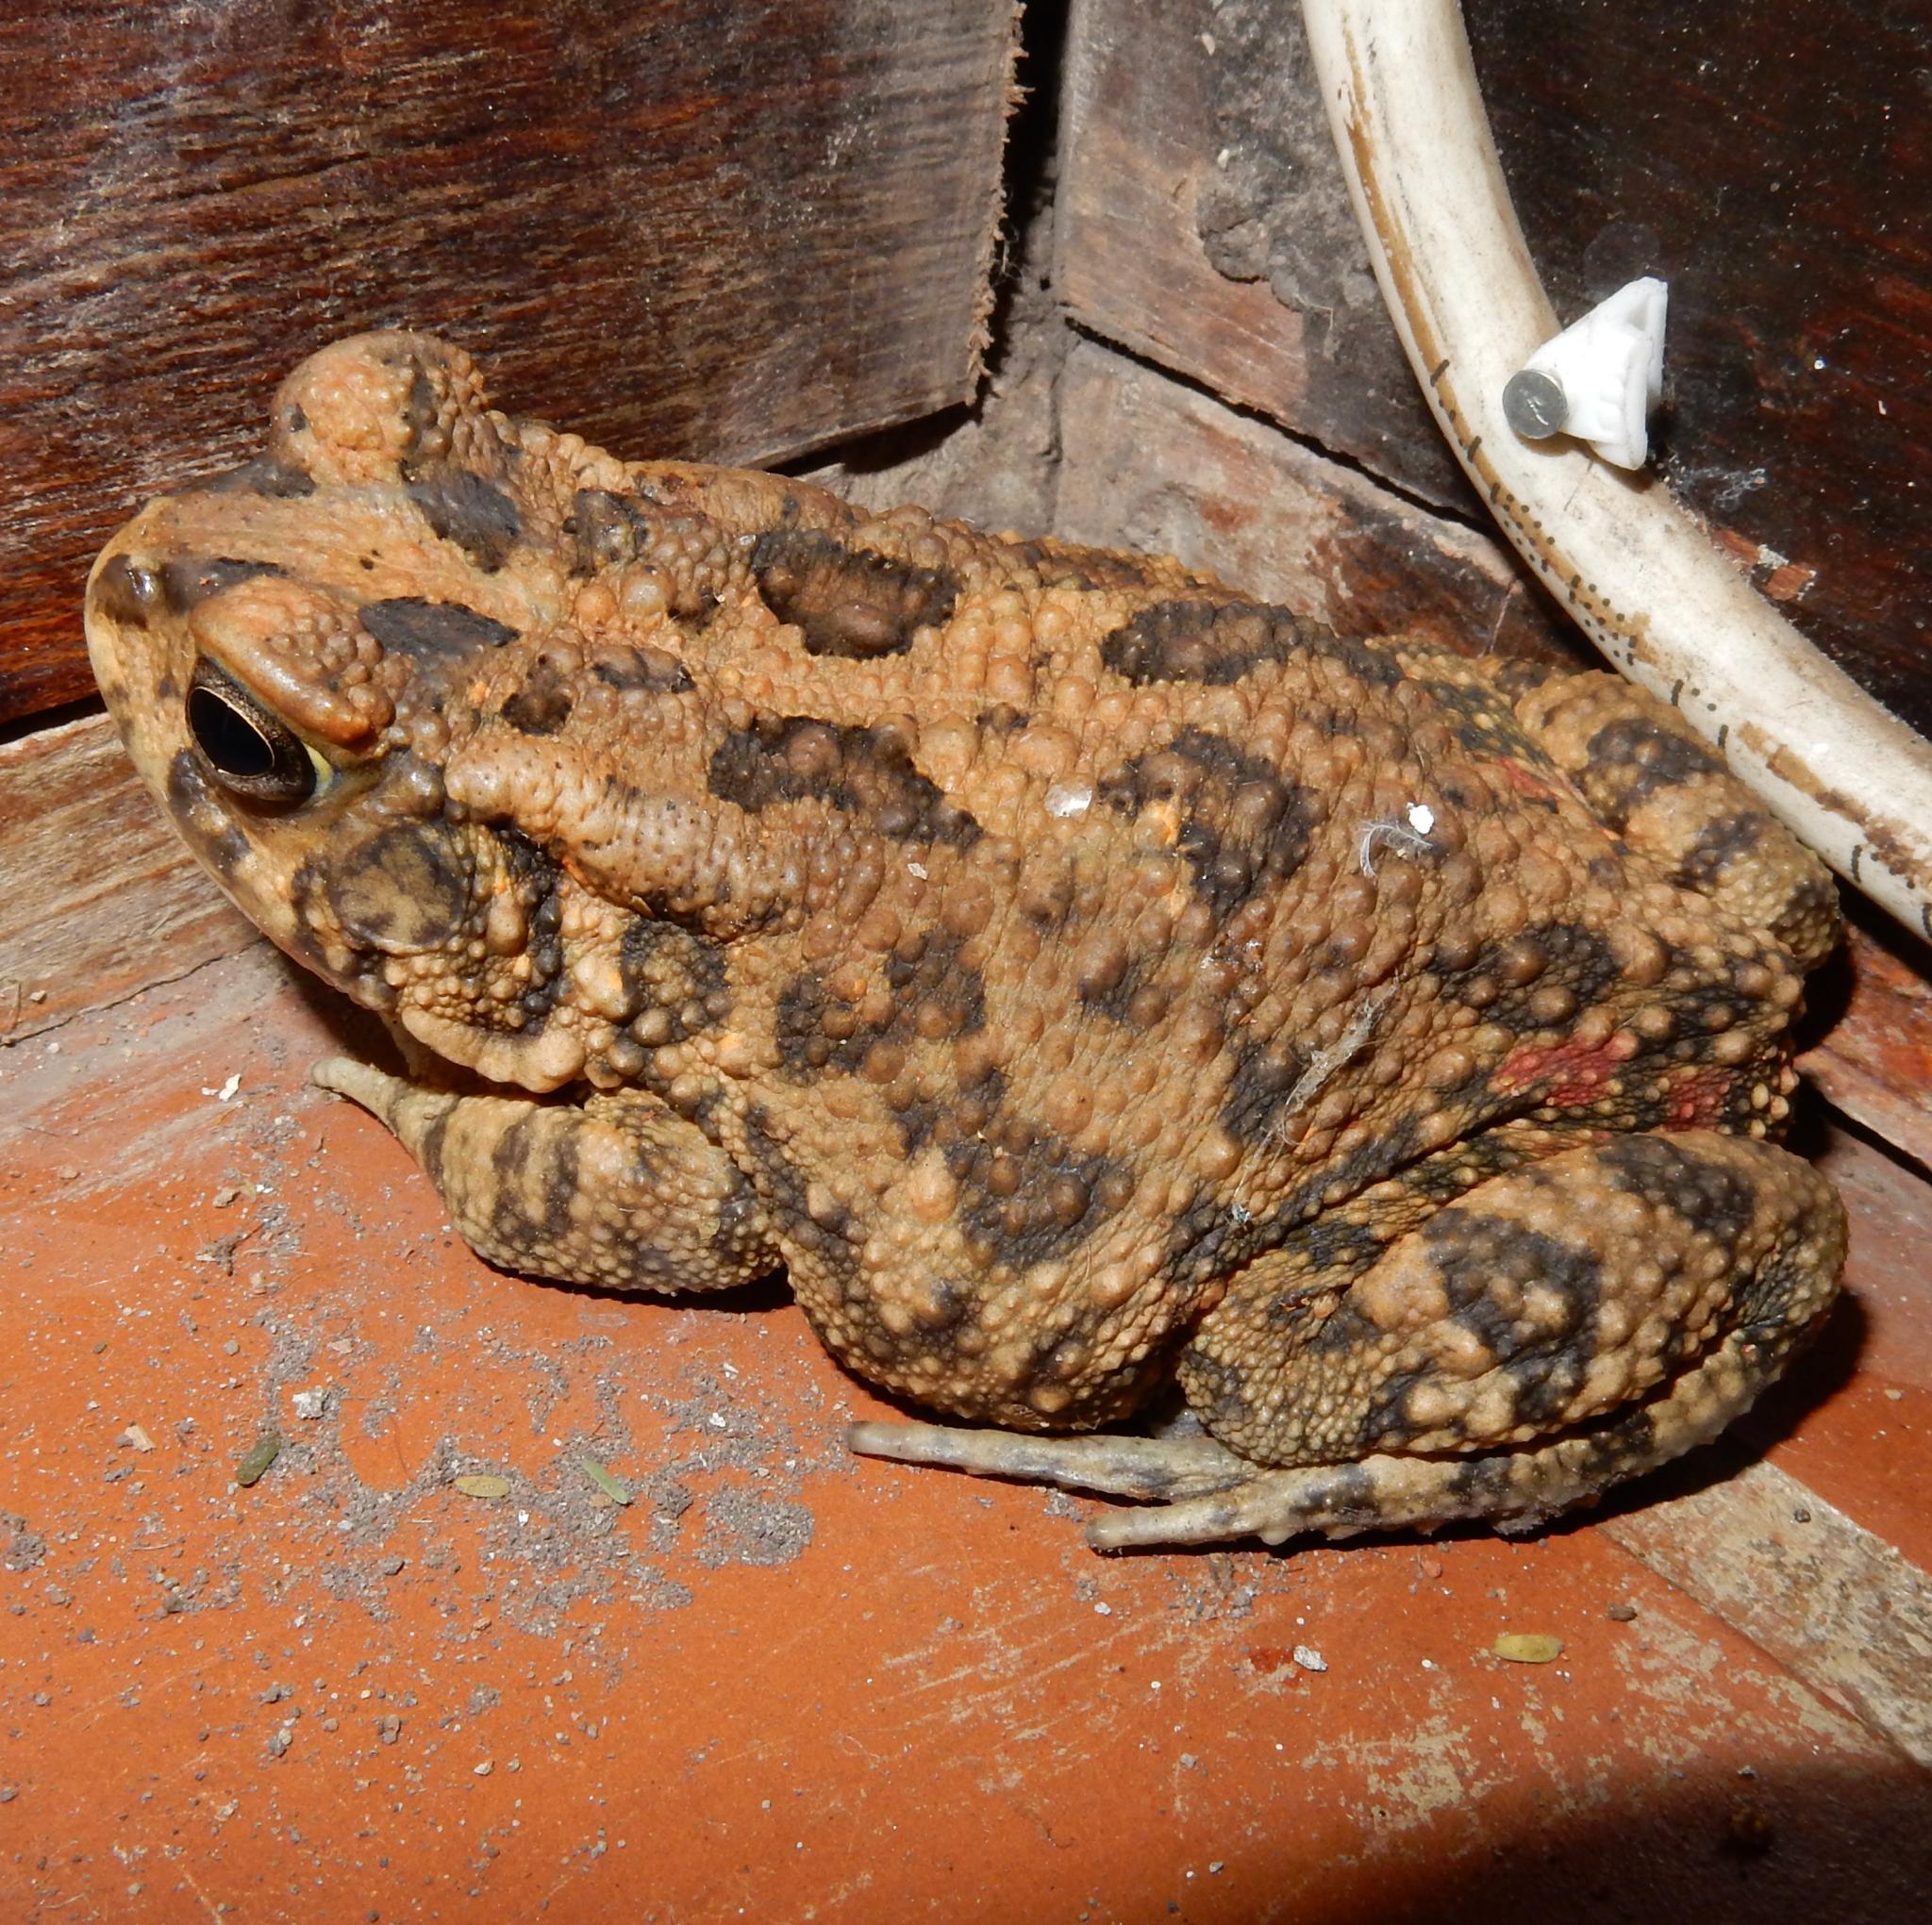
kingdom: Animalia
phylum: Chordata
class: Amphibia
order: Anura
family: Bufonidae
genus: Sclerophrys
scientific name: Sclerophrys gutturalis
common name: African common toad
